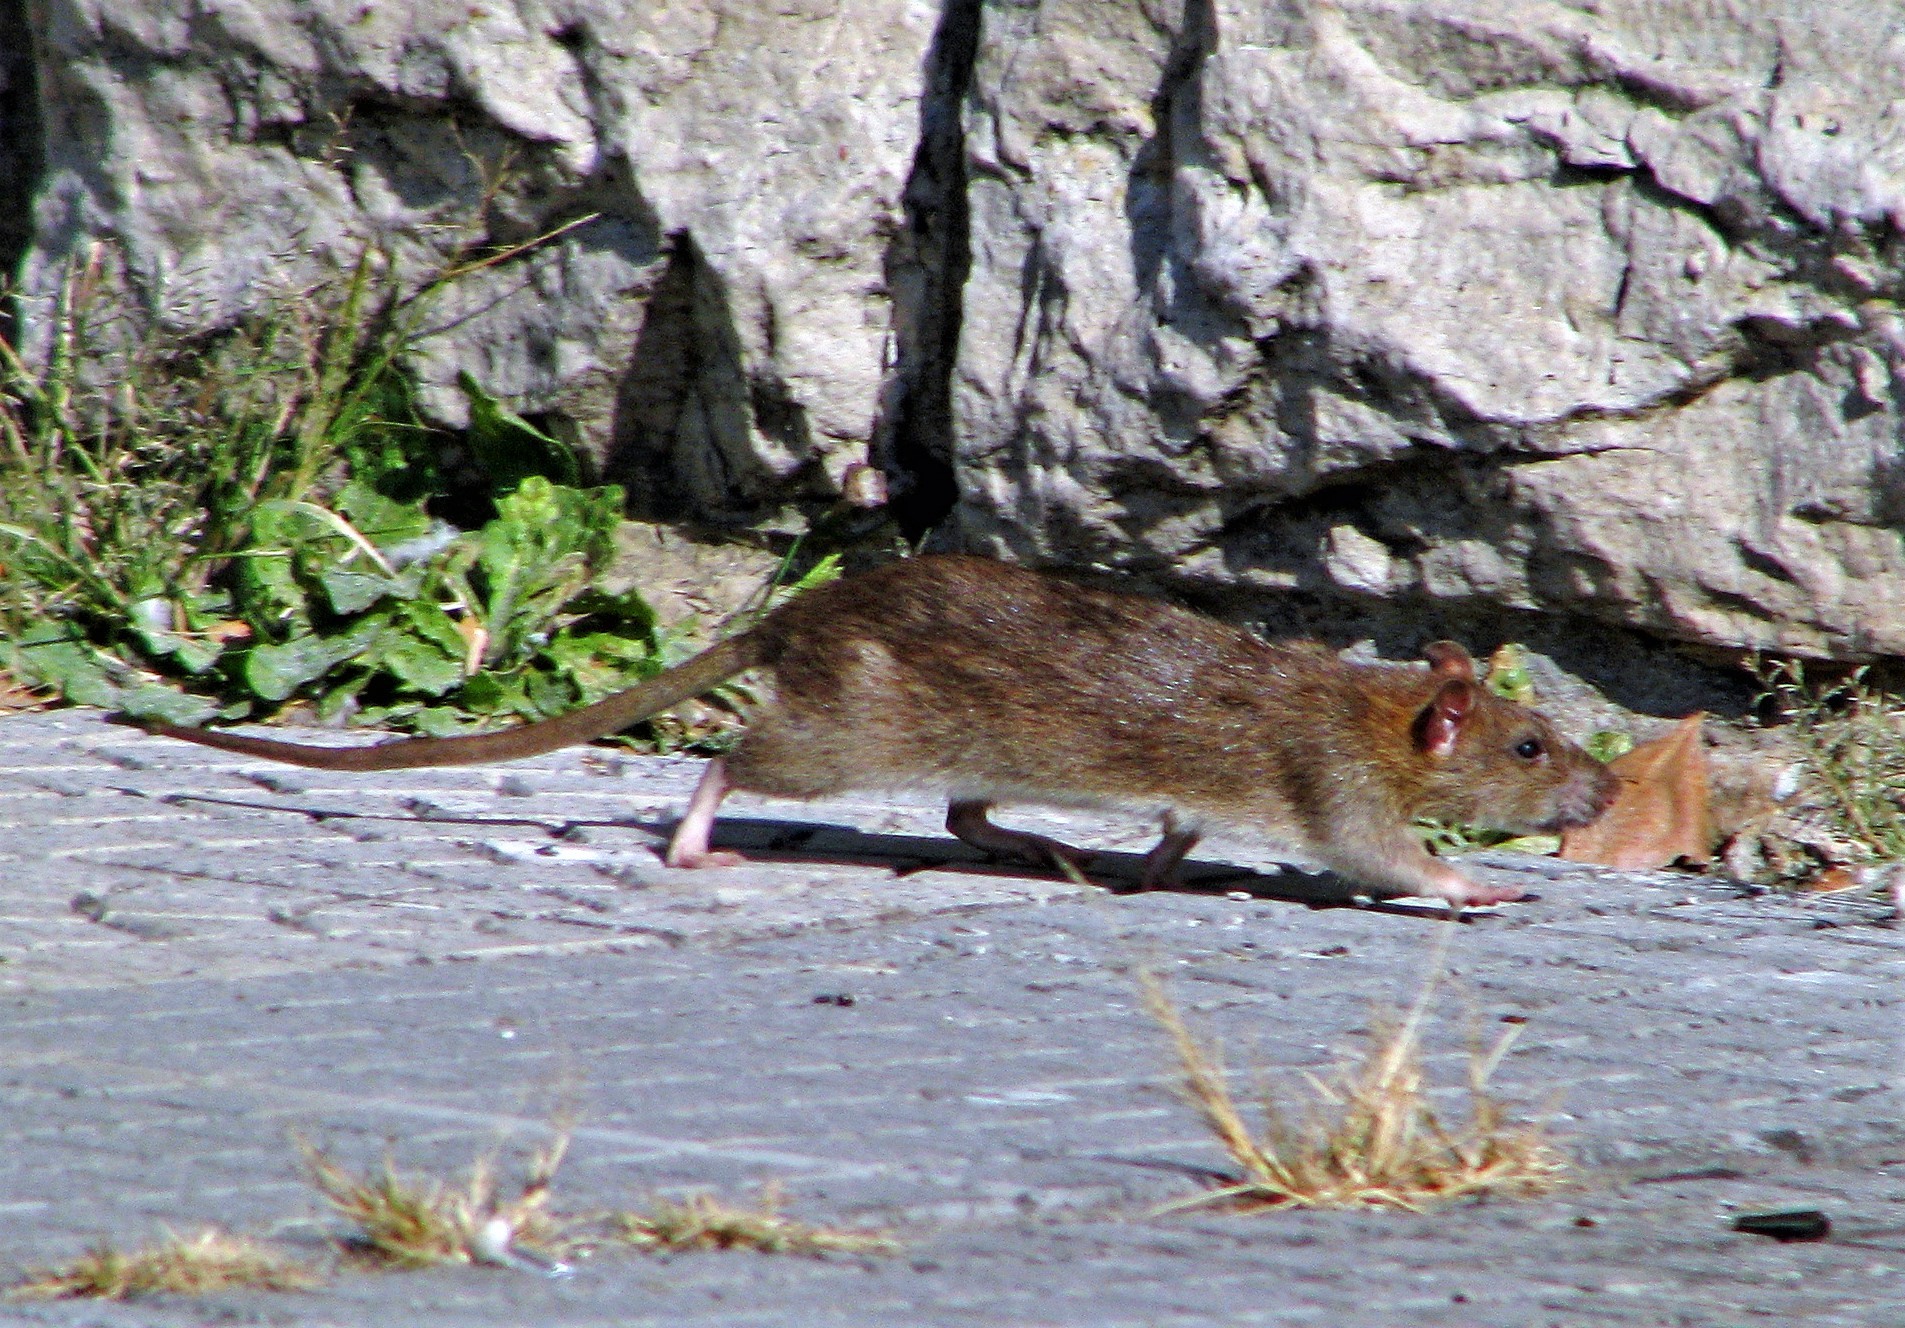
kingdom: Animalia
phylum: Chordata
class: Mammalia
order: Rodentia
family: Muridae
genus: Rattus
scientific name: Rattus norvegicus
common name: Brown rat
